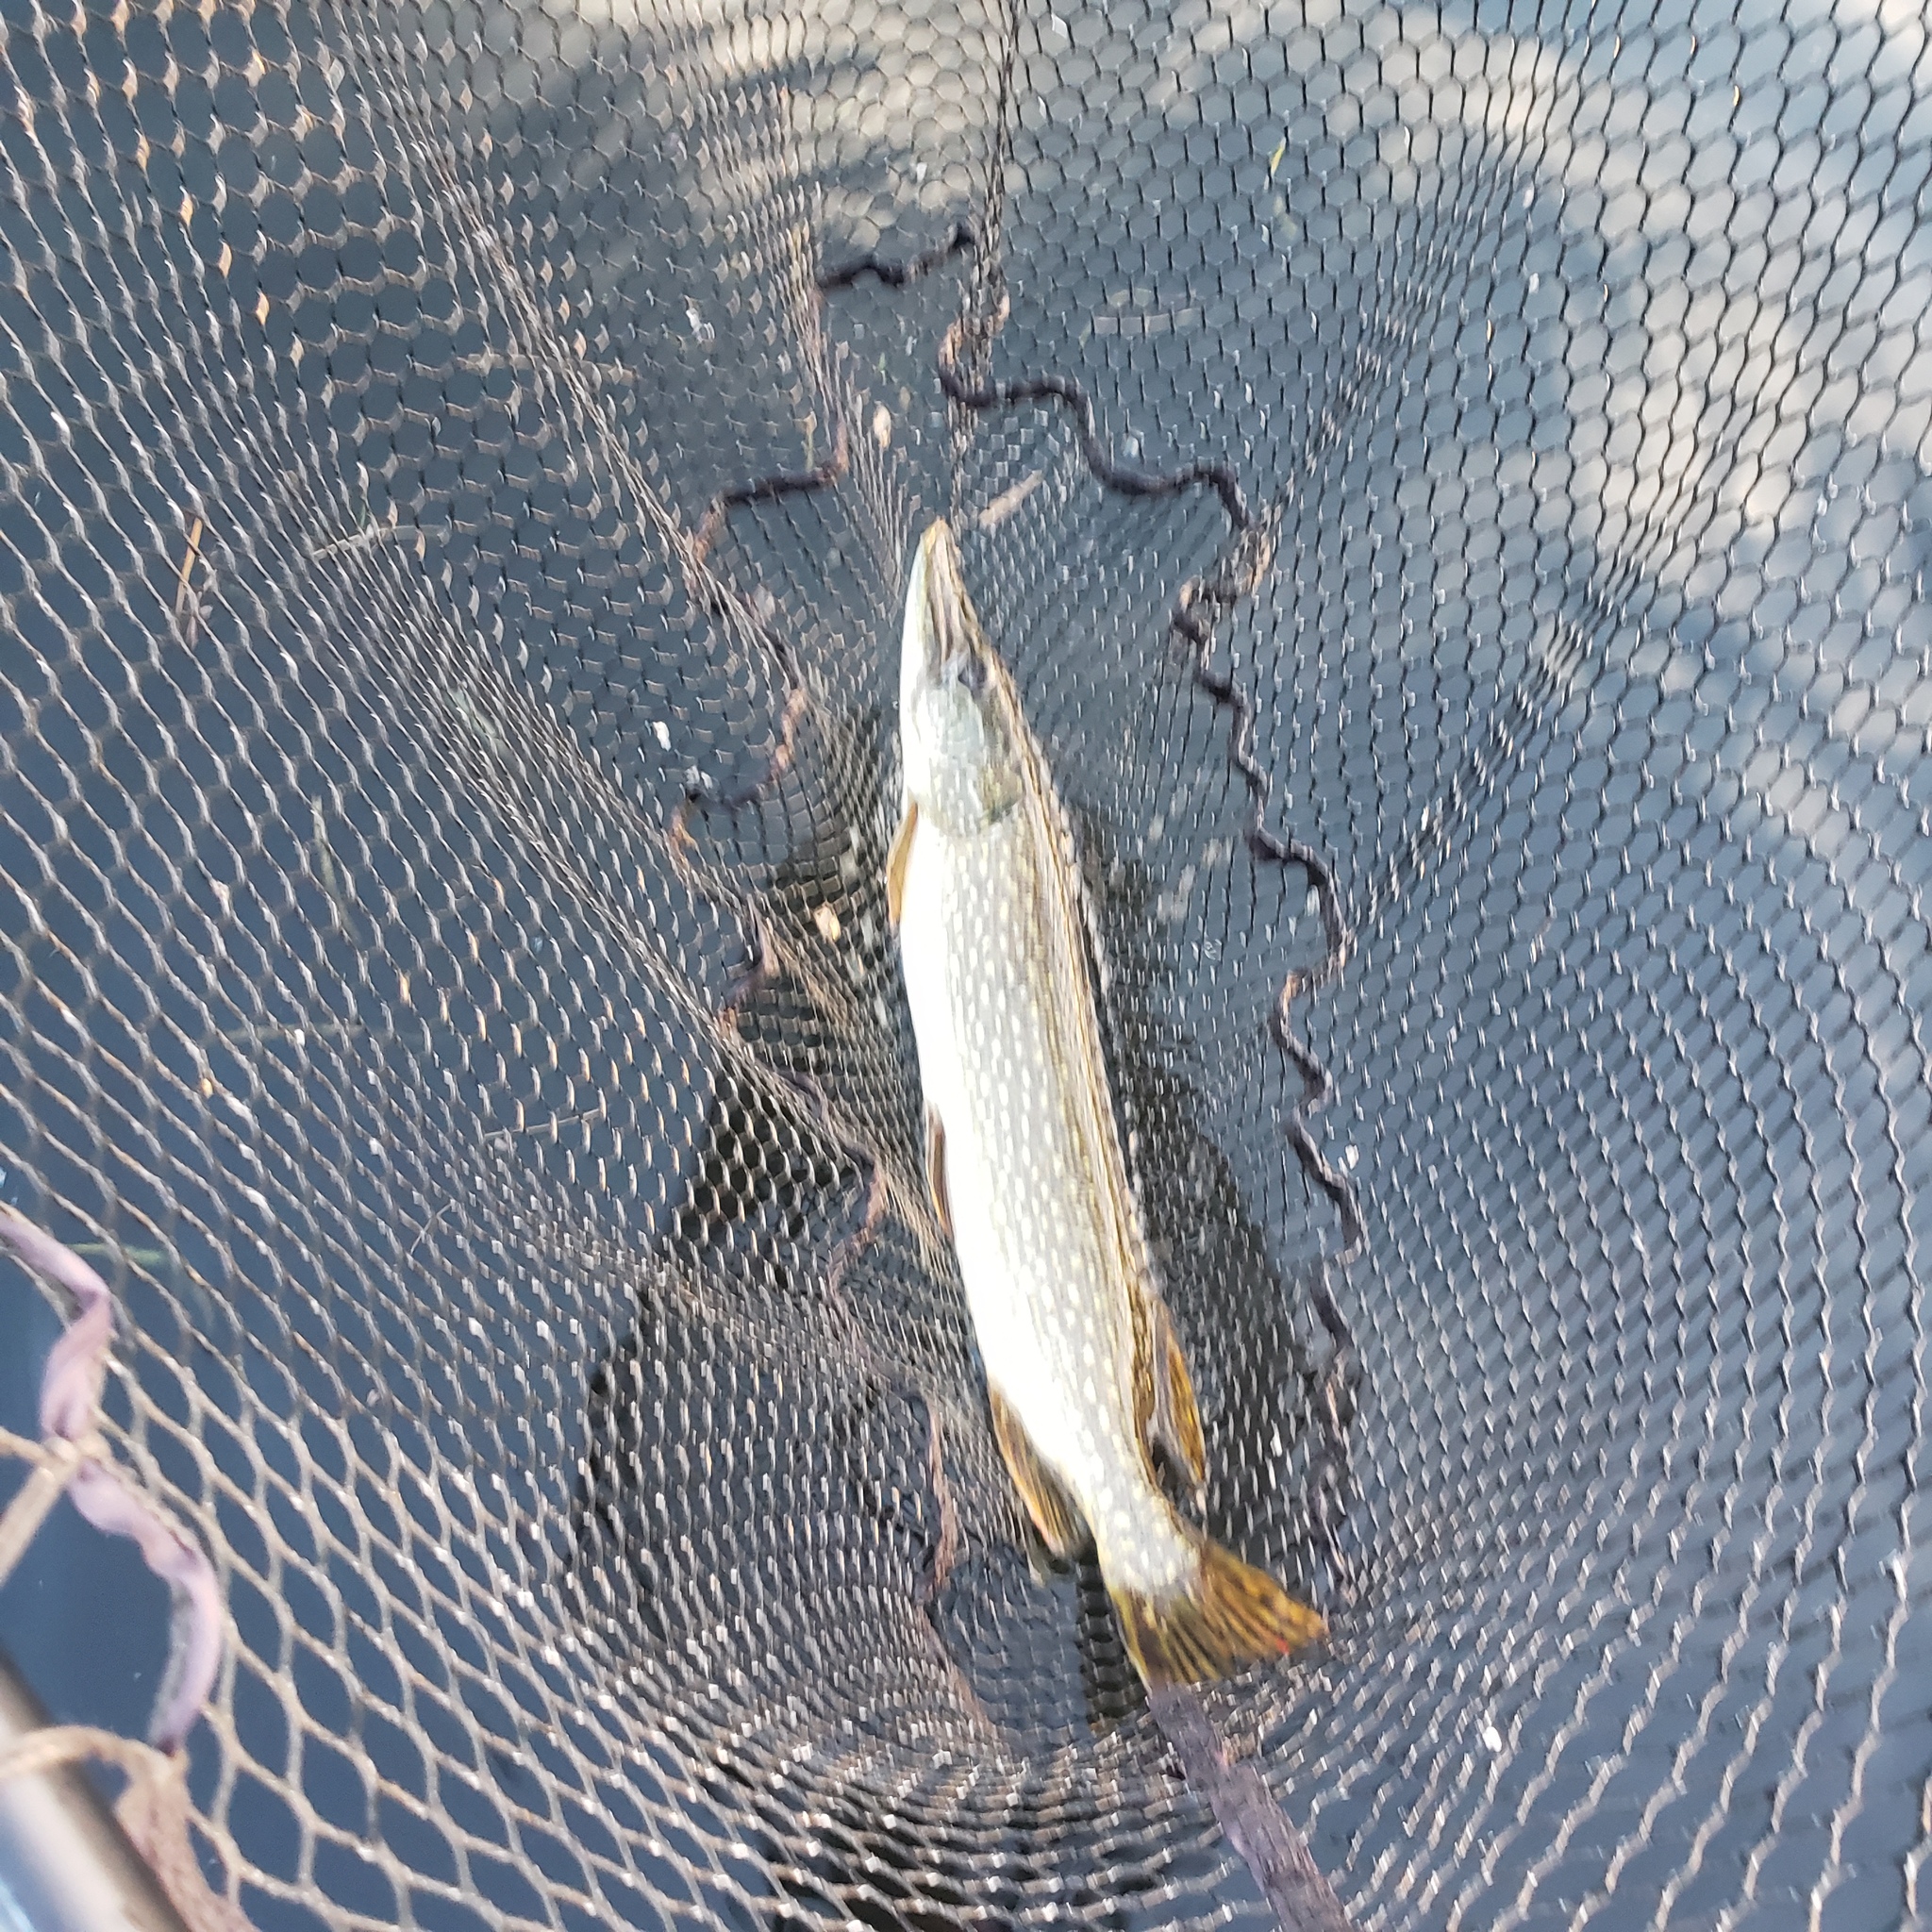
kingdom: Animalia
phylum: Chordata
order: Esociformes
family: Esocidae
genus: Esox
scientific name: Esox lucius
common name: Northern pike
